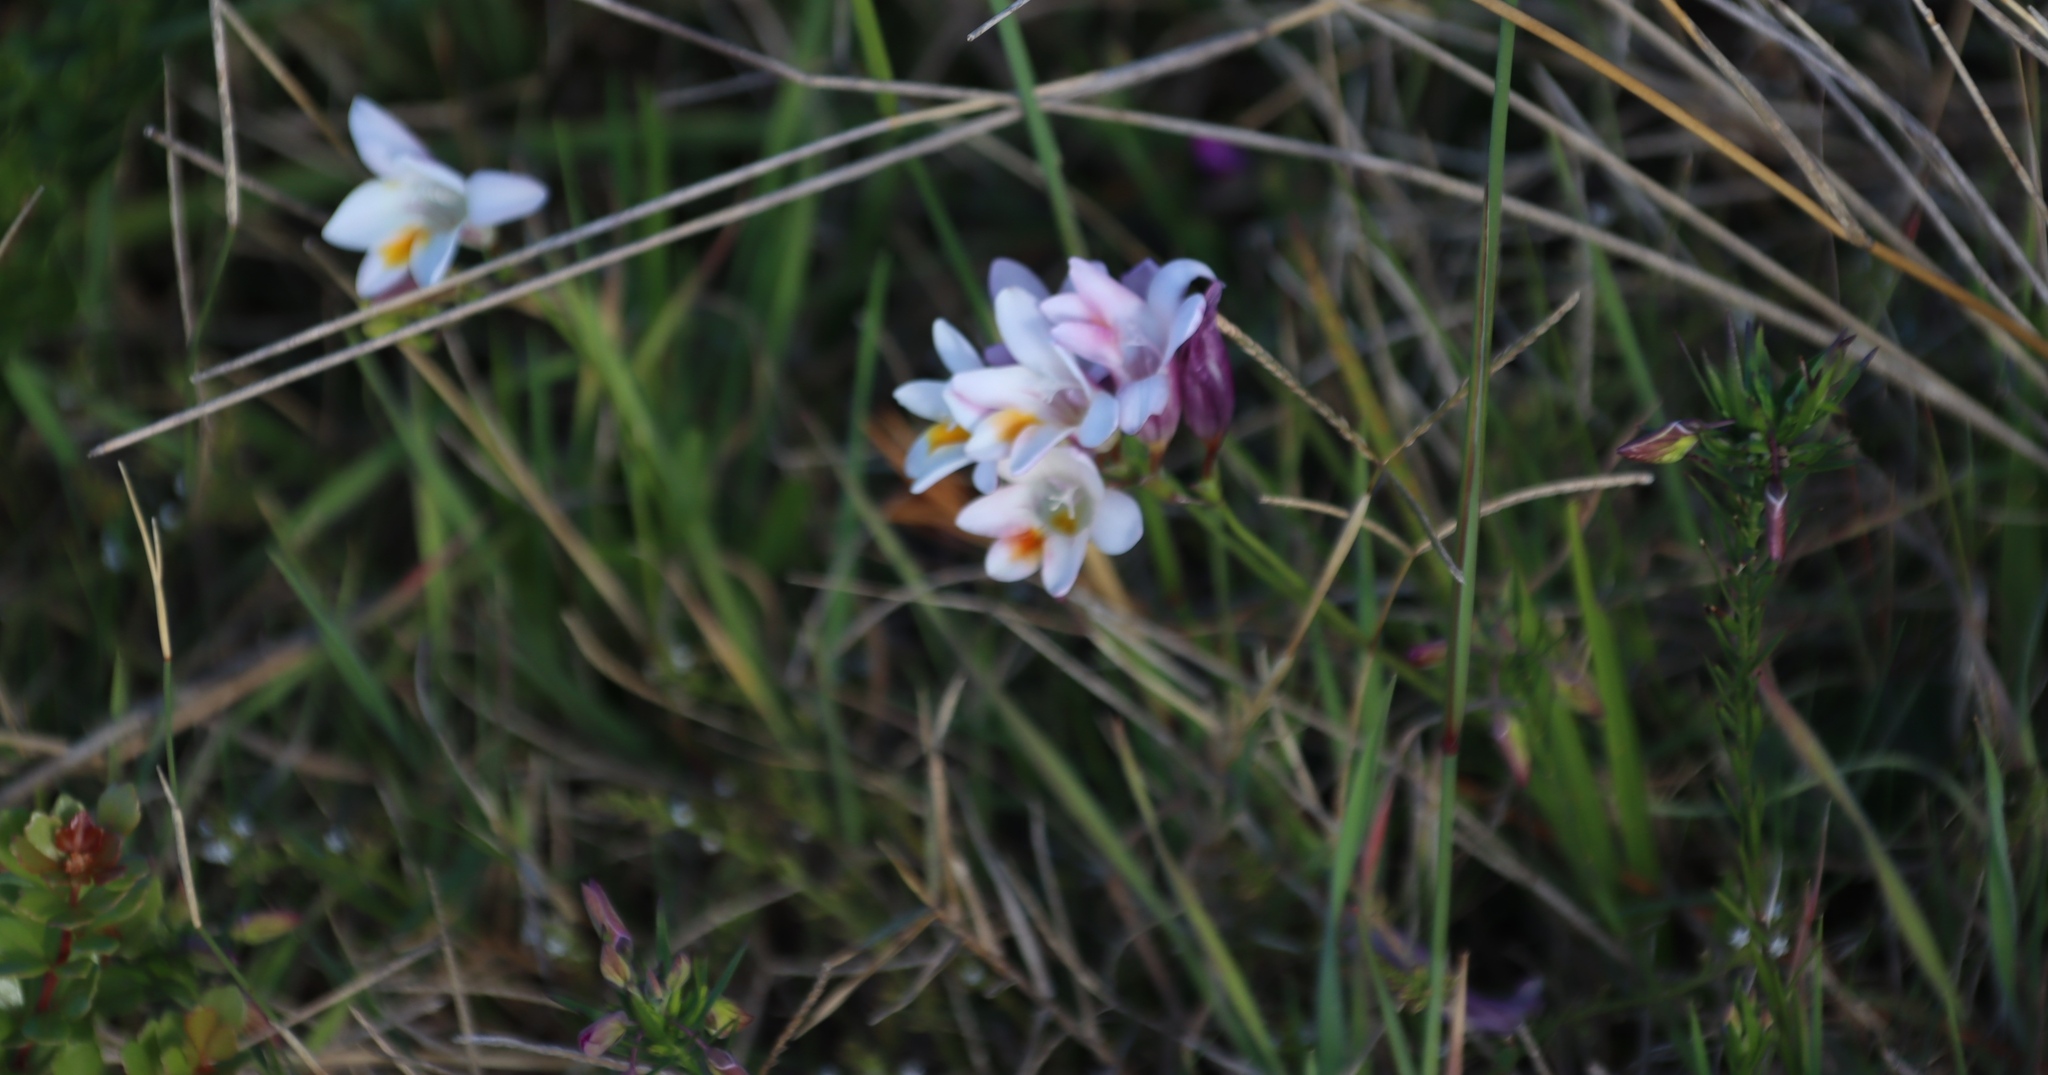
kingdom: Plantae
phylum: Tracheophyta
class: Liliopsida
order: Asparagales
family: Iridaceae
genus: Freesia
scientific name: Freesia leichtlinii
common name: Freesia
